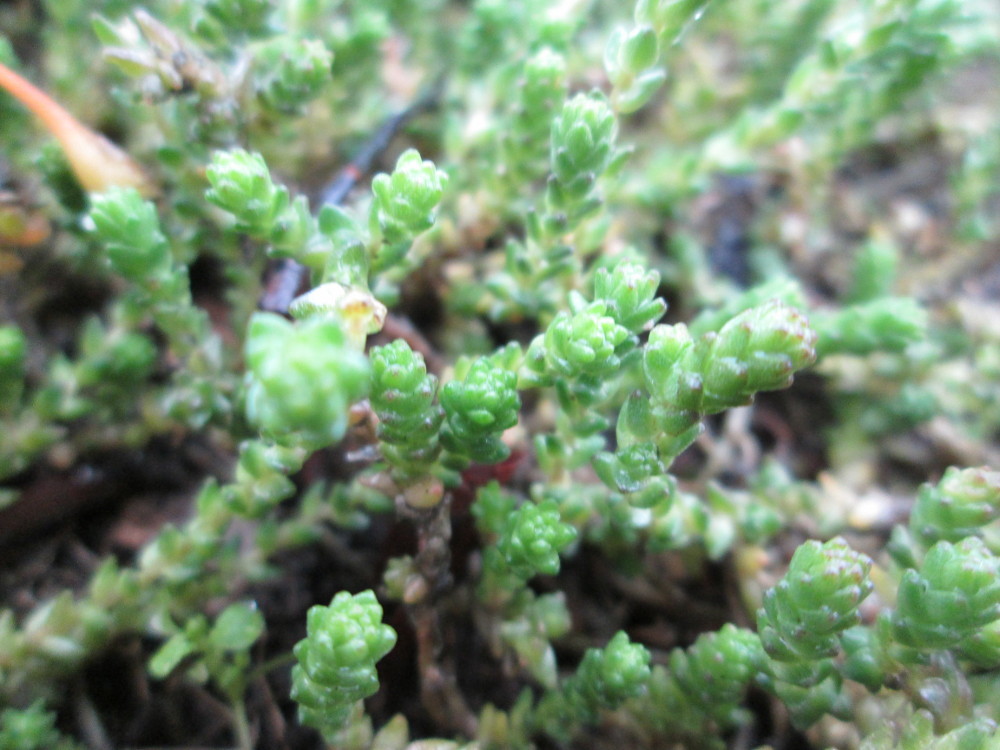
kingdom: Plantae
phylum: Tracheophyta
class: Magnoliopsida
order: Saxifragales
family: Crassulaceae
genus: Sedum
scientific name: Sedum acre
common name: Biting stonecrop
